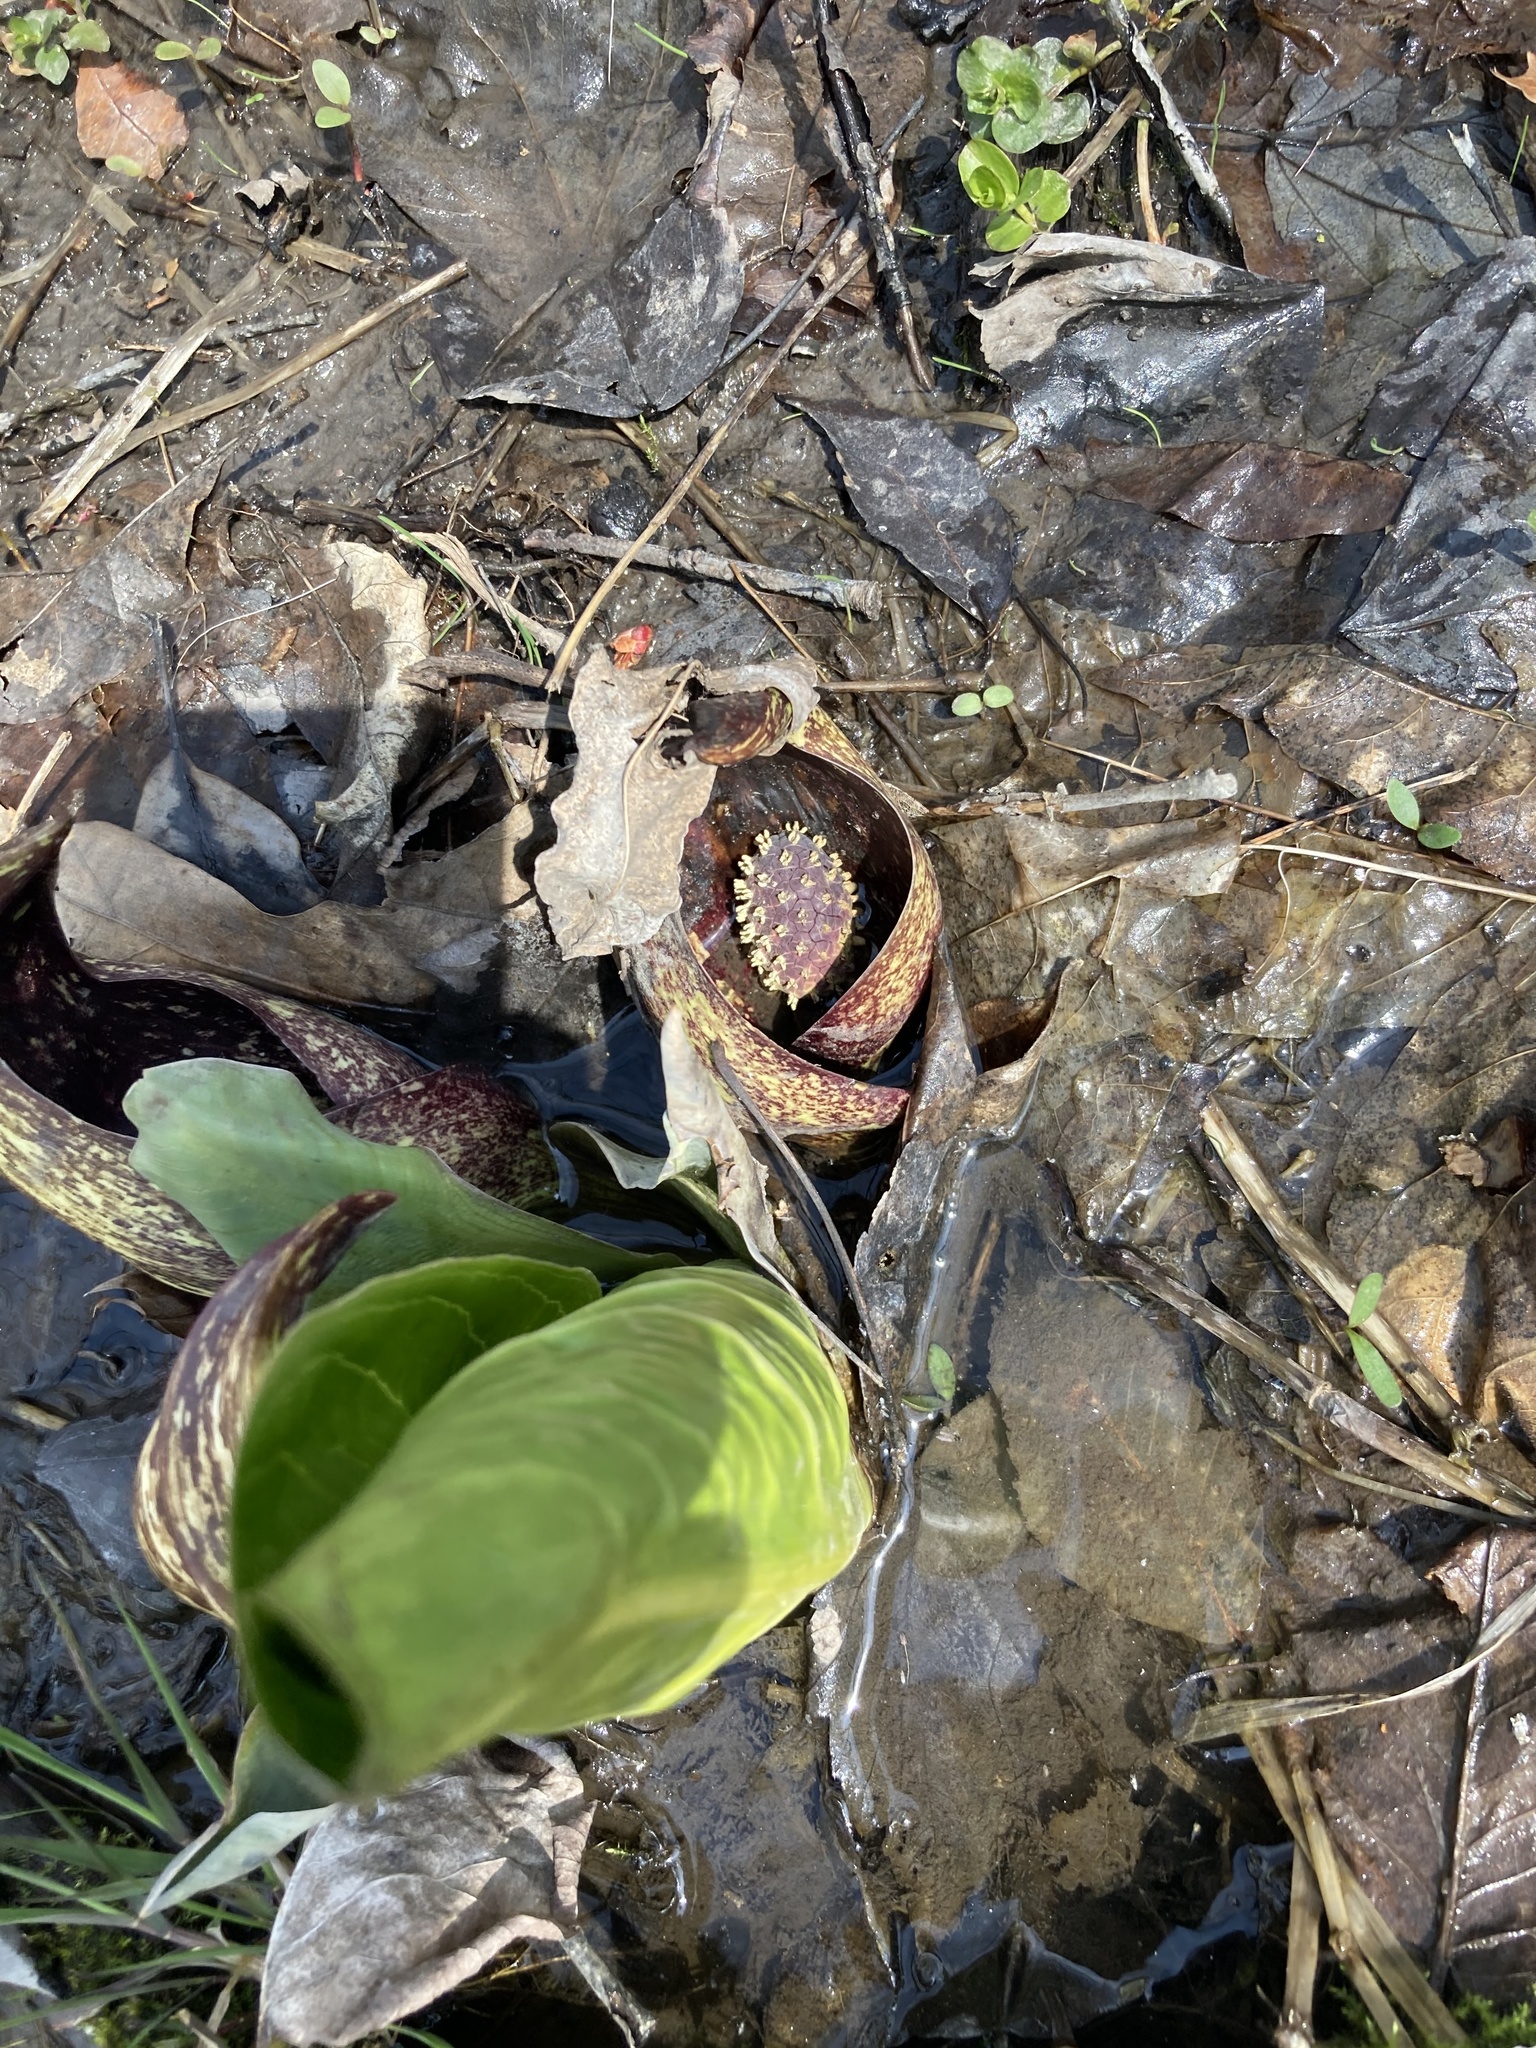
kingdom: Plantae
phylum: Tracheophyta
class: Liliopsida
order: Alismatales
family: Araceae
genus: Symplocarpus
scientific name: Symplocarpus foetidus
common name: Eastern skunk cabbage
